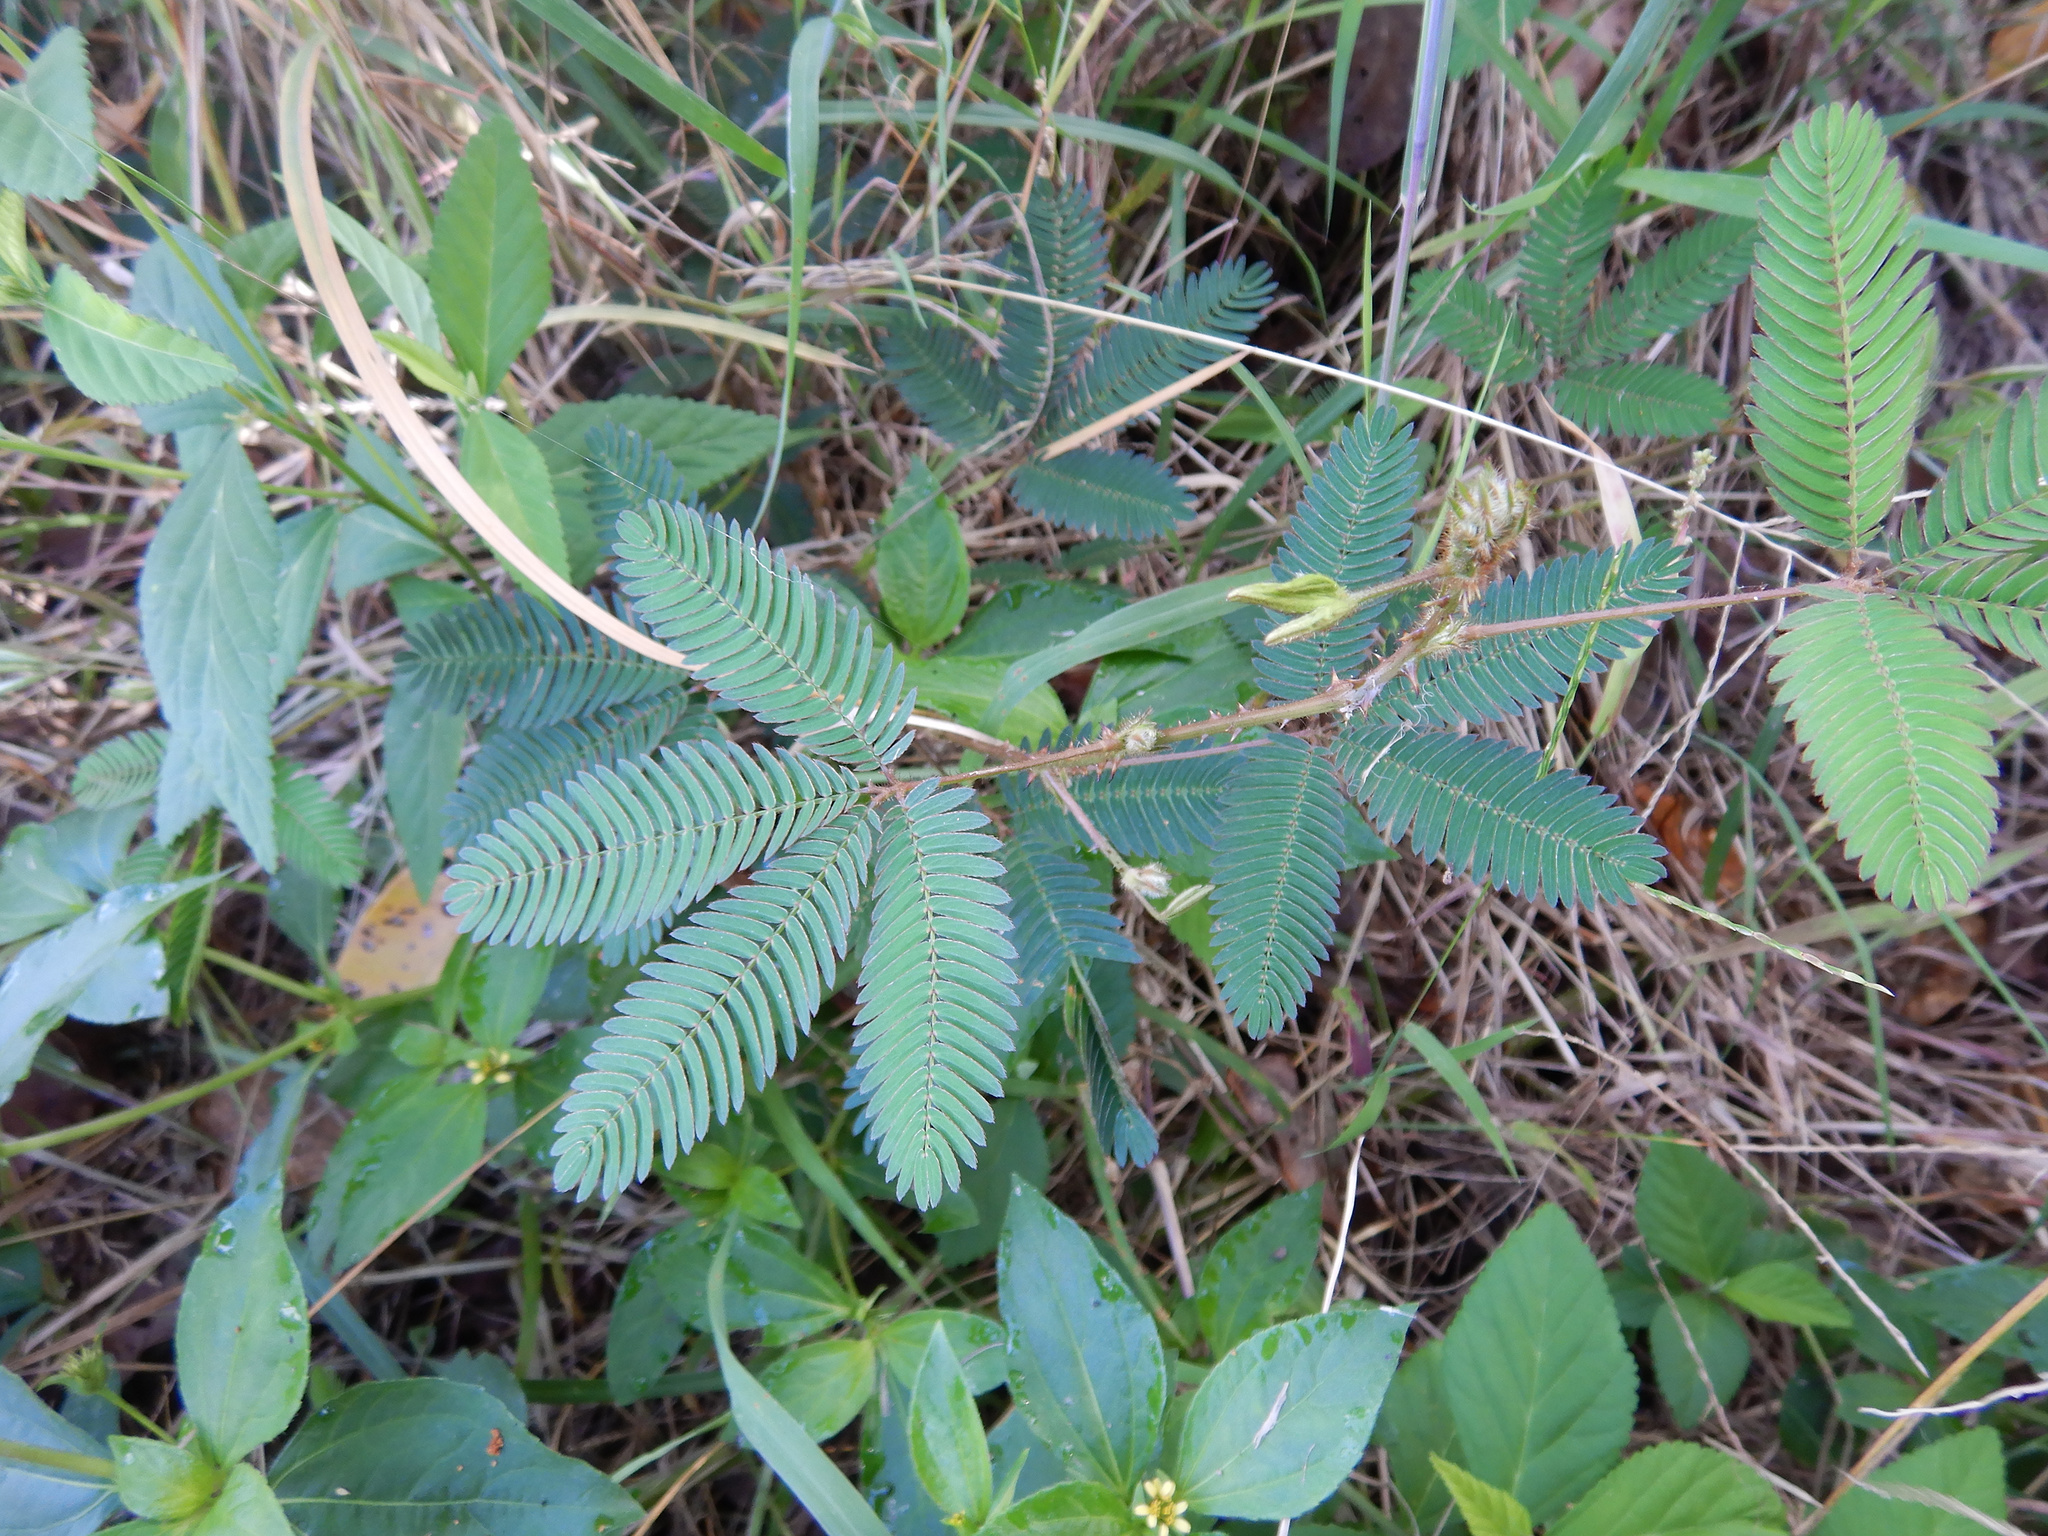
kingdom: Plantae
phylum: Tracheophyta
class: Magnoliopsida
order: Fabales
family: Fabaceae
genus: Mimosa
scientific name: Mimosa pudica
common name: Sensitive plant
